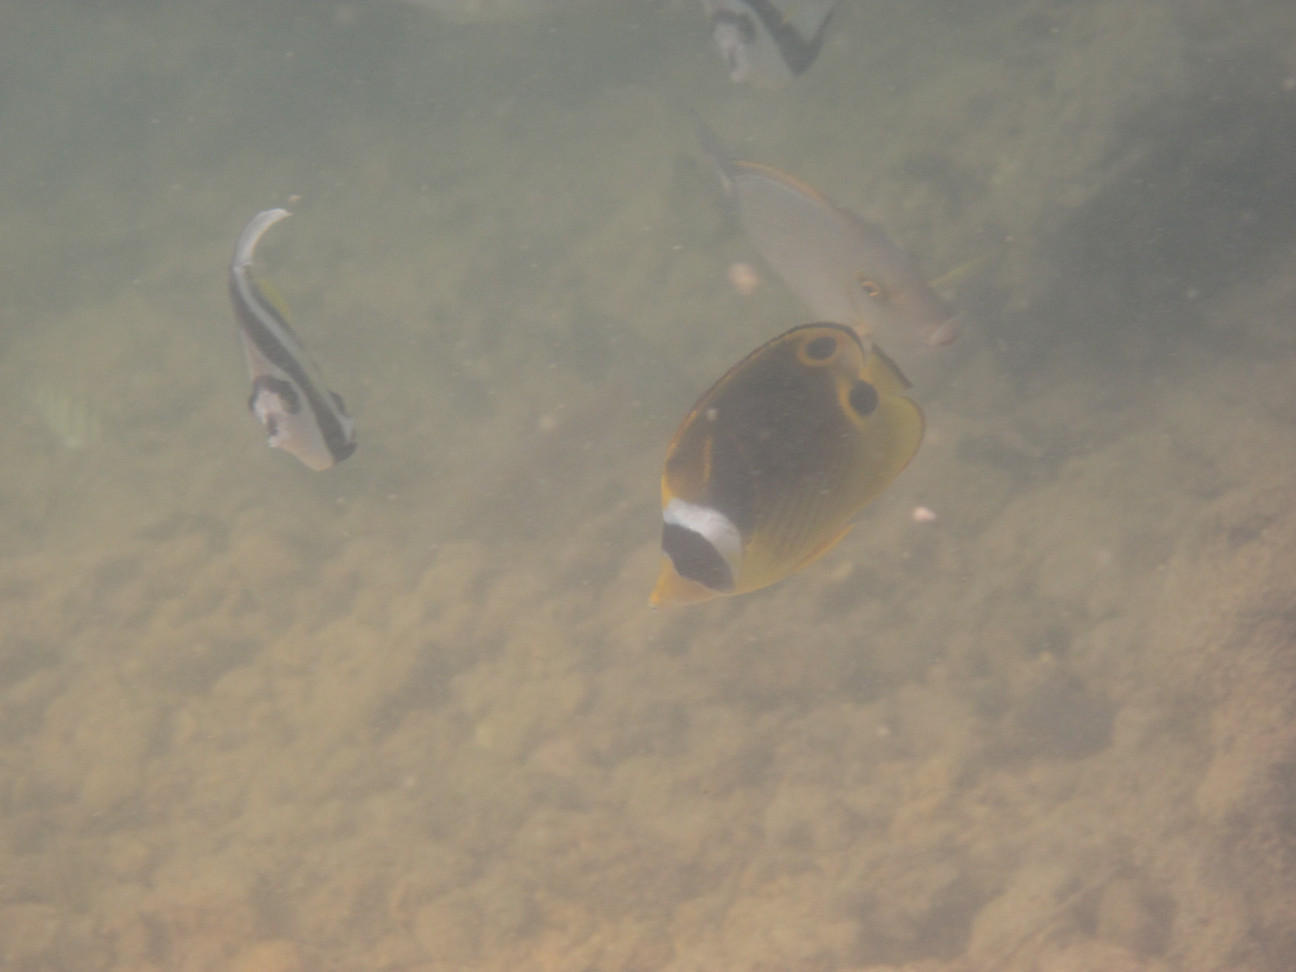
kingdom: Animalia
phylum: Chordata
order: Perciformes
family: Chaetodontidae
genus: Chaetodon
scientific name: Chaetodon lunula
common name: Raccoon butterflyfish
